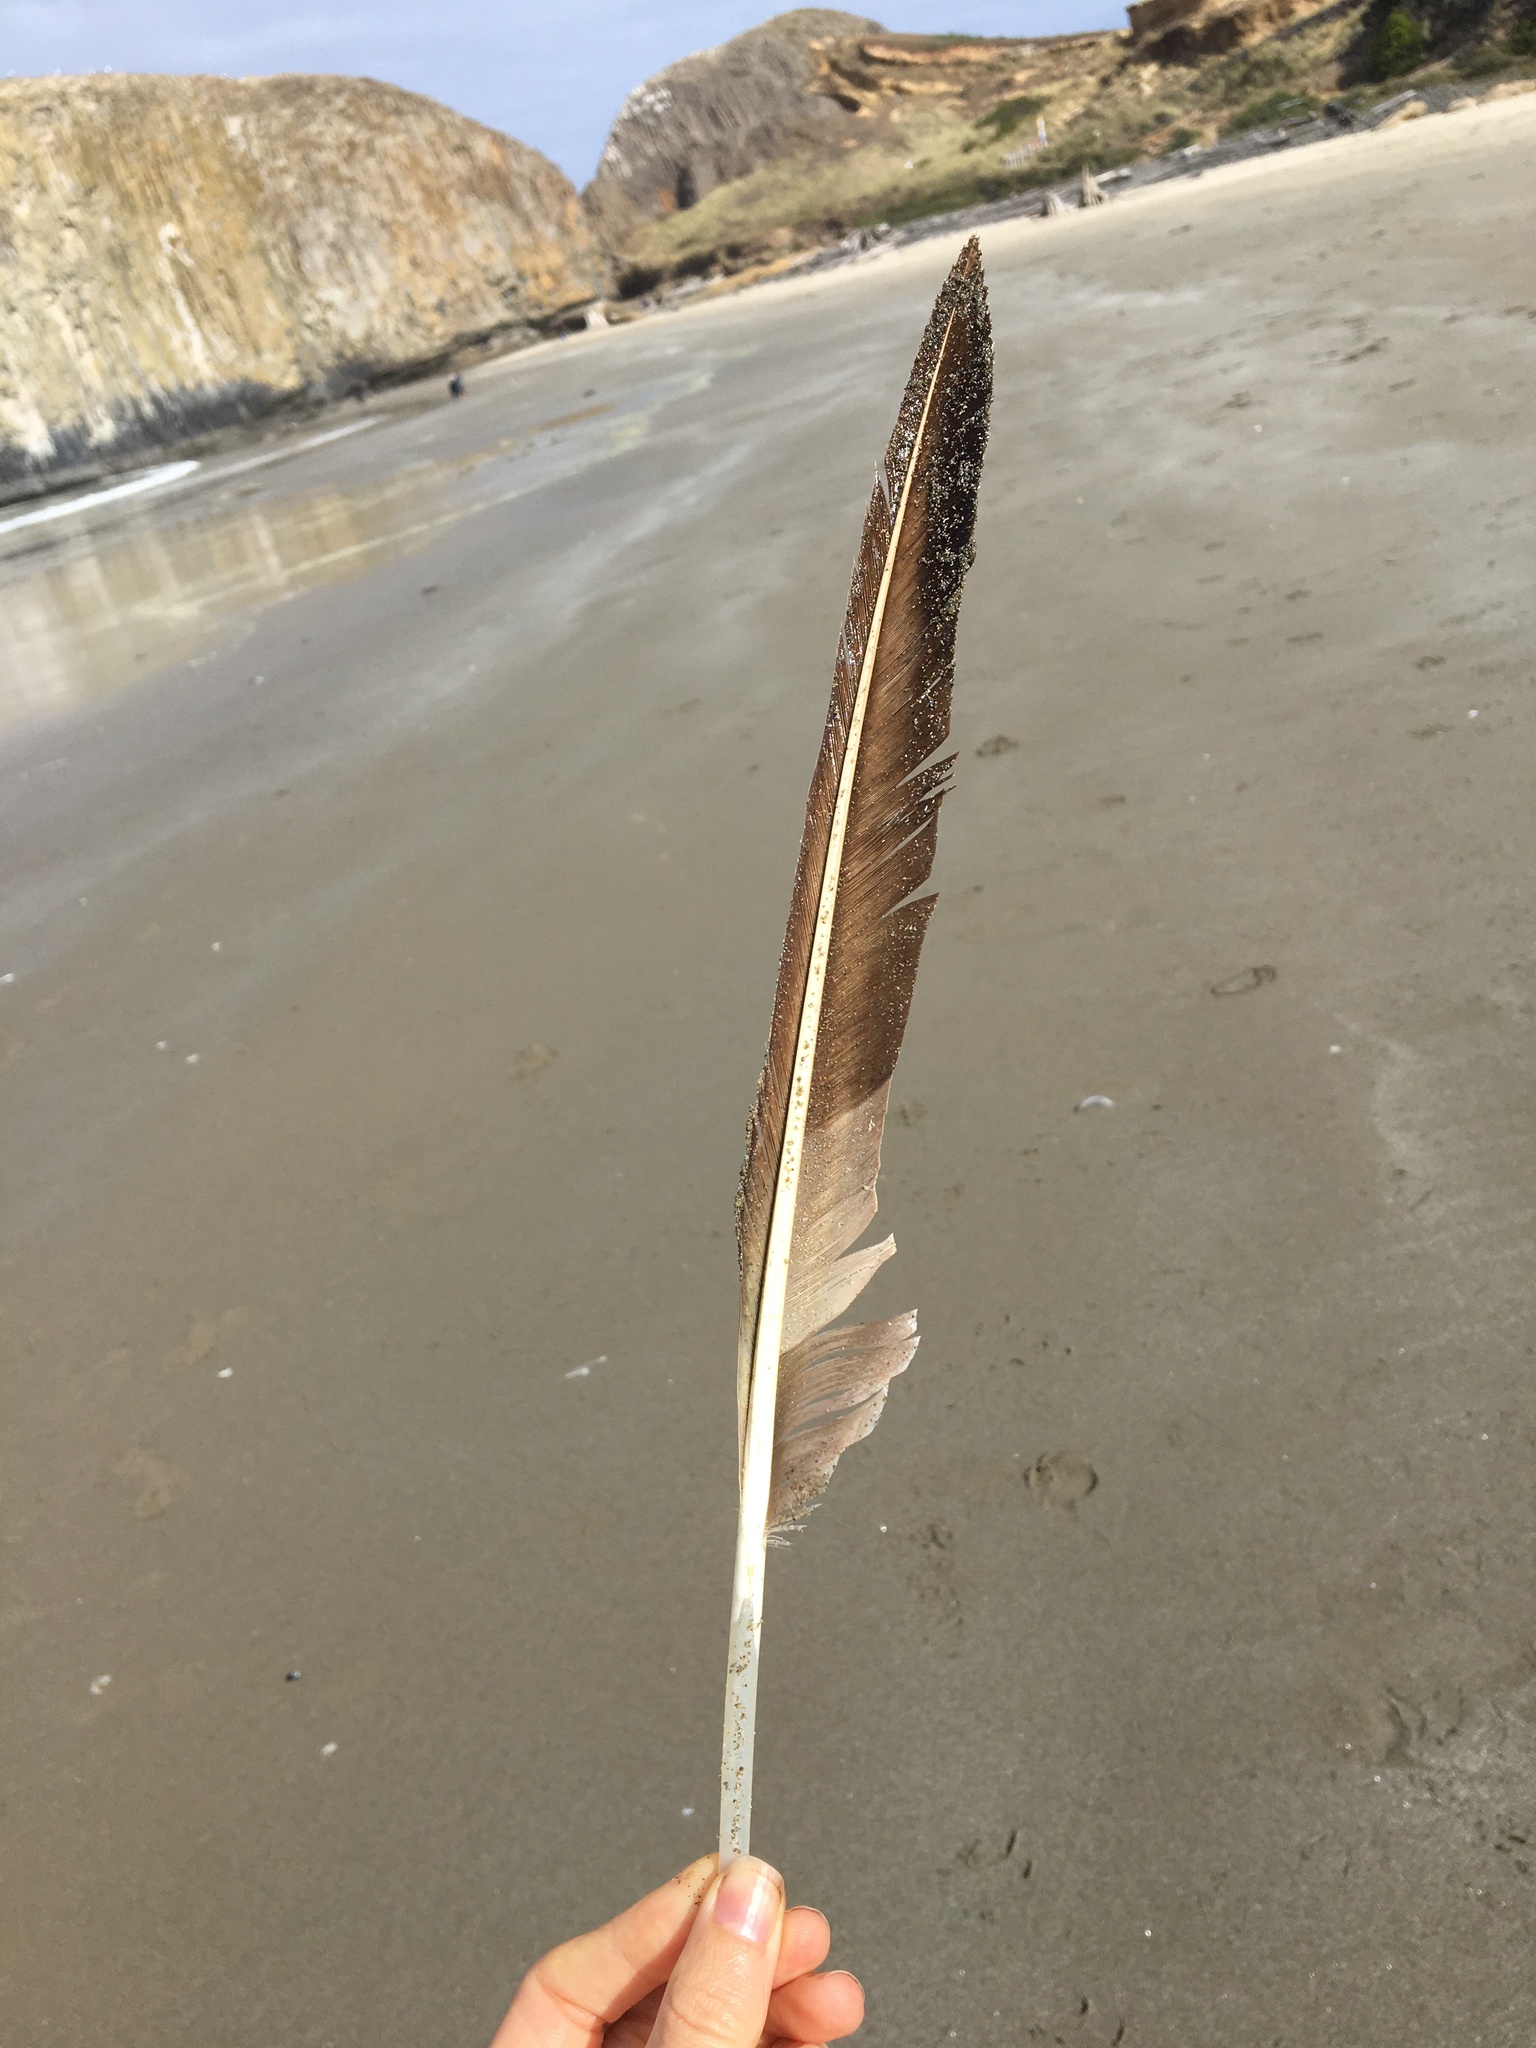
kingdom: Animalia
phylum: Chordata
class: Aves
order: Pelecaniformes
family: Pelecanidae
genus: Pelecanus
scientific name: Pelecanus occidentalis
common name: Brown pelican
